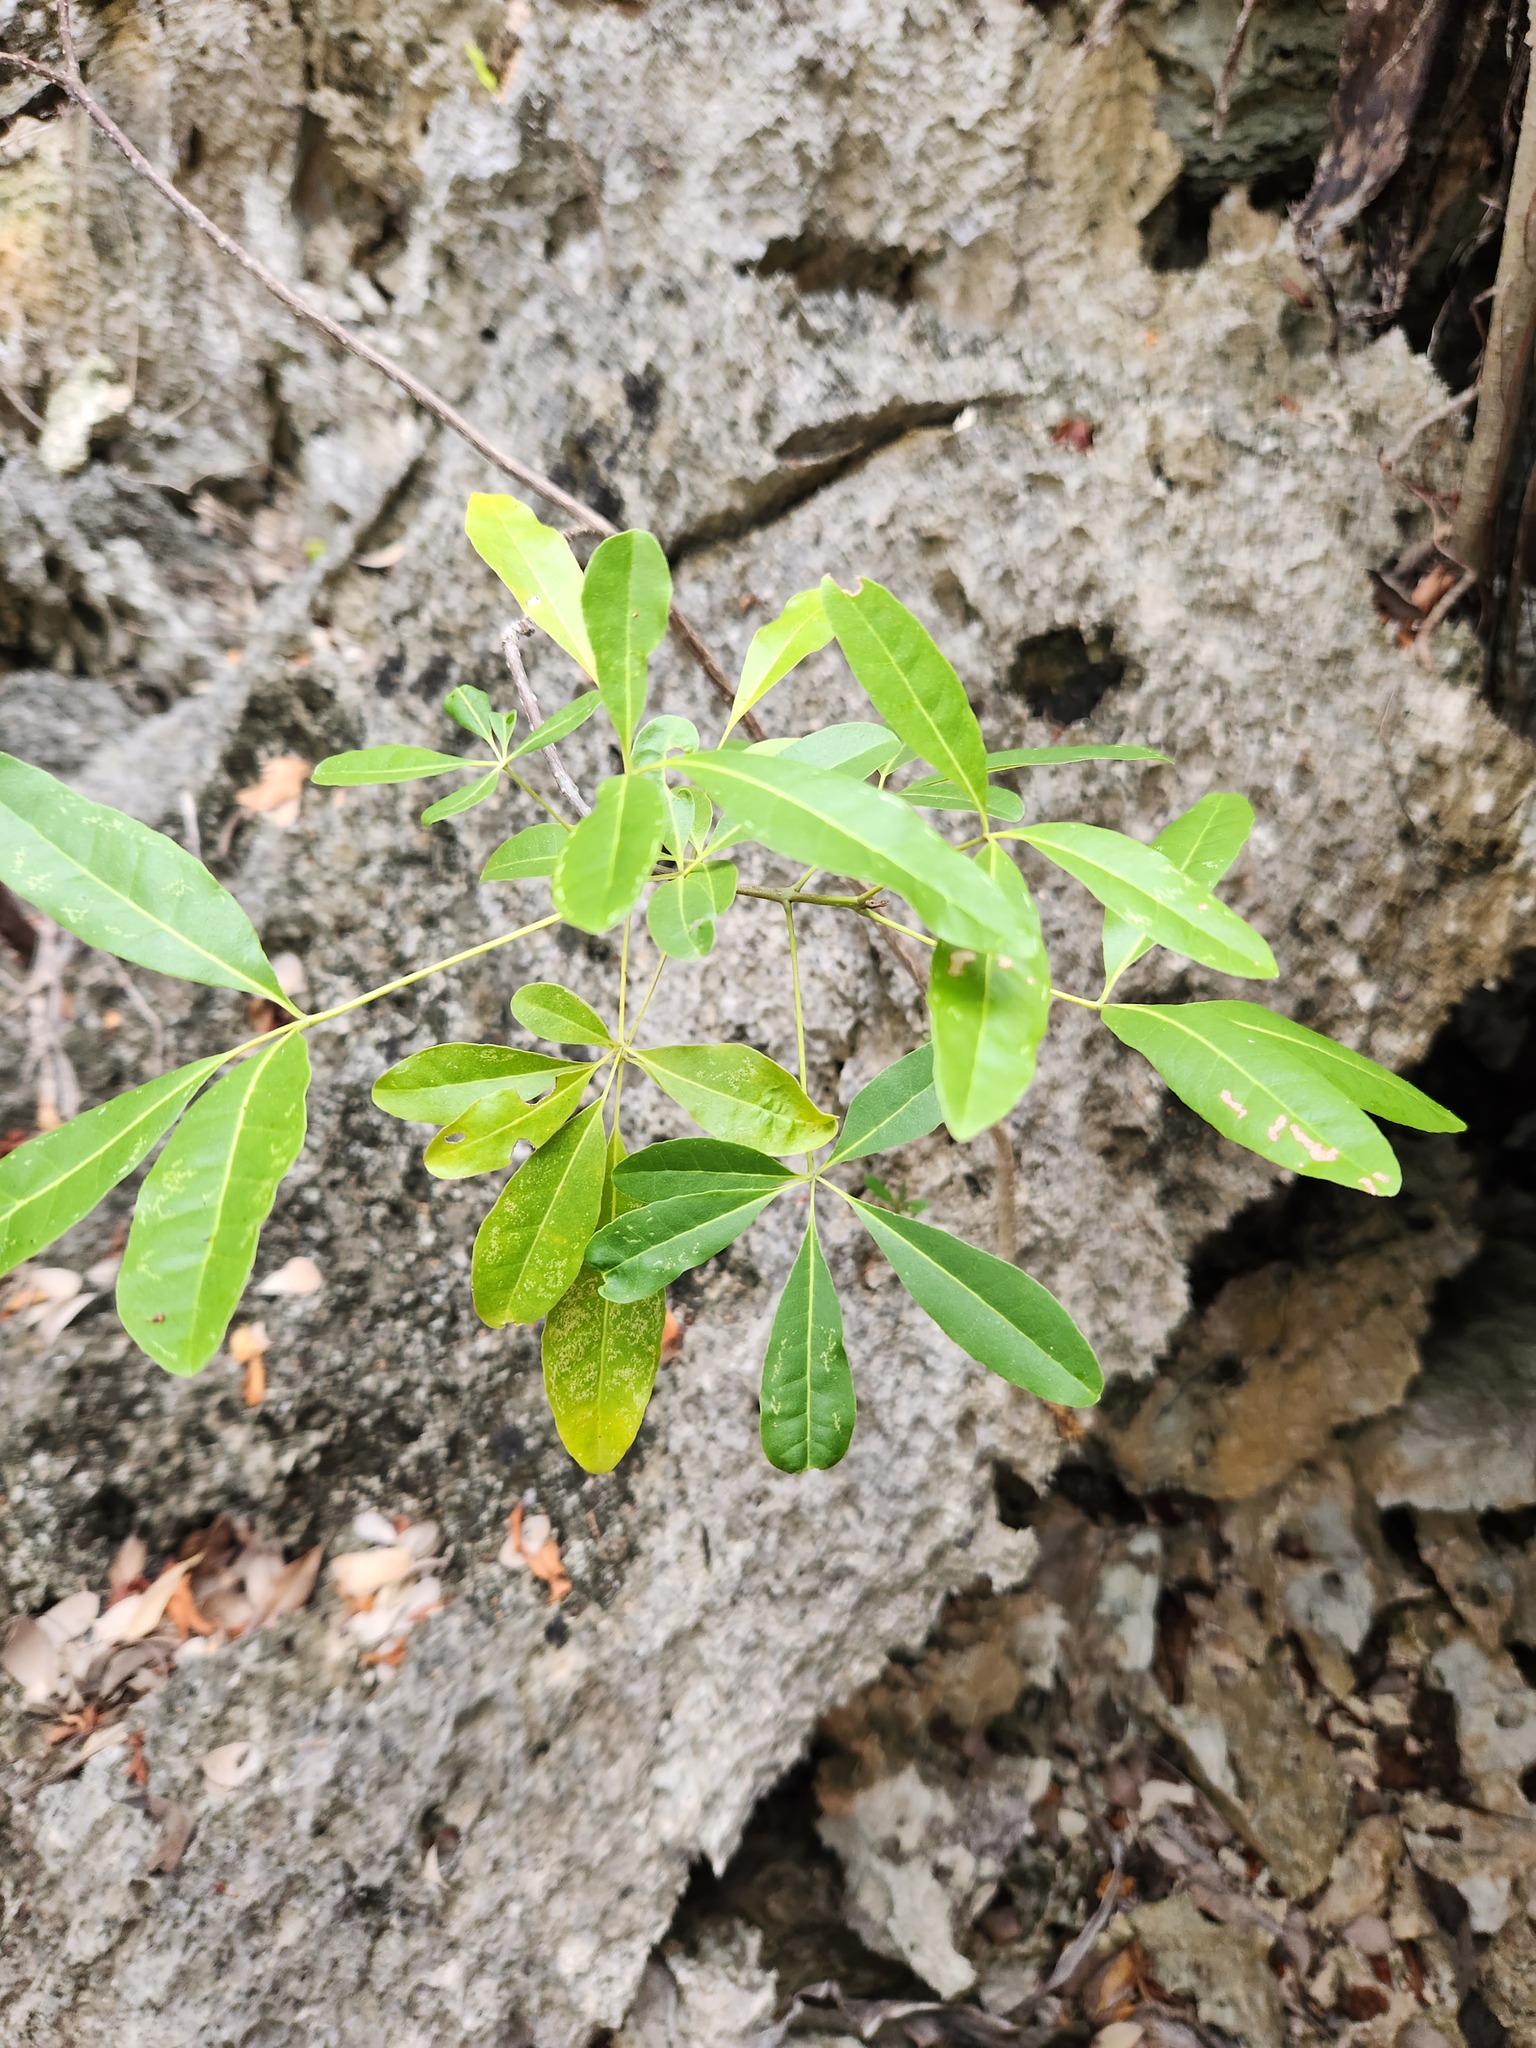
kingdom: Plantae
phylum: Tracheophyta
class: Magnoliopsida
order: Lamiales
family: Bignoniaceae
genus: Tabebuia
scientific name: Tabebuia heterophylla
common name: White cedar
